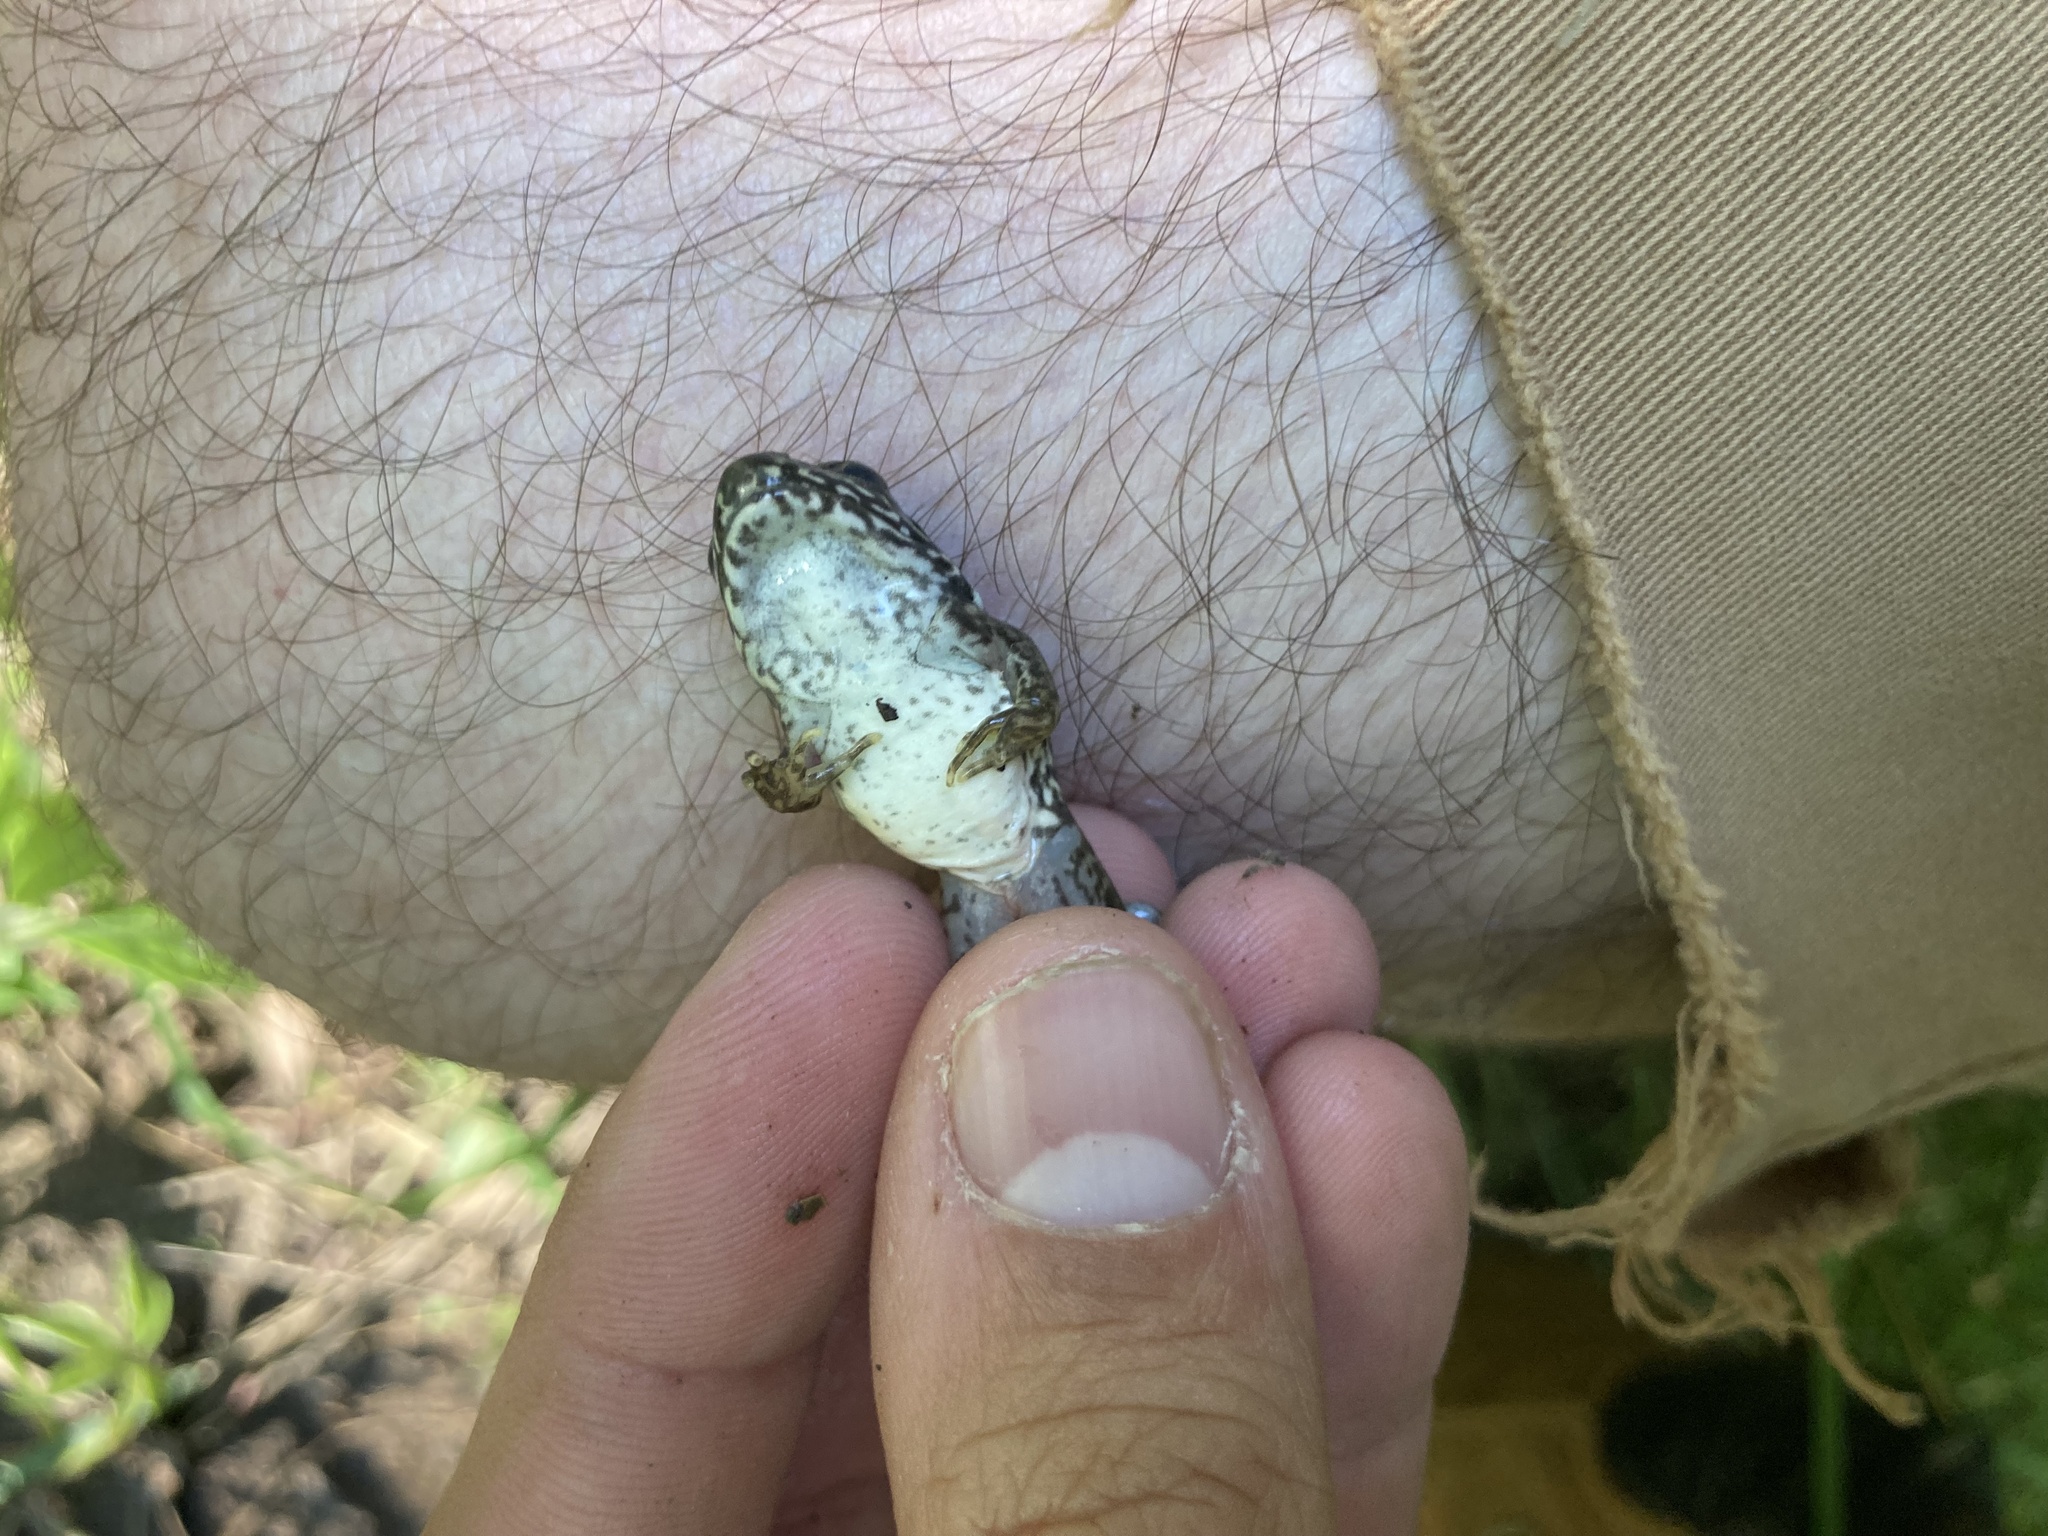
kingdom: Animalia
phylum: Chordata
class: Amphibia
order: Anura
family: Ranidae
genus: Lithobates
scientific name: Lithobates clamitans
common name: Green frog
